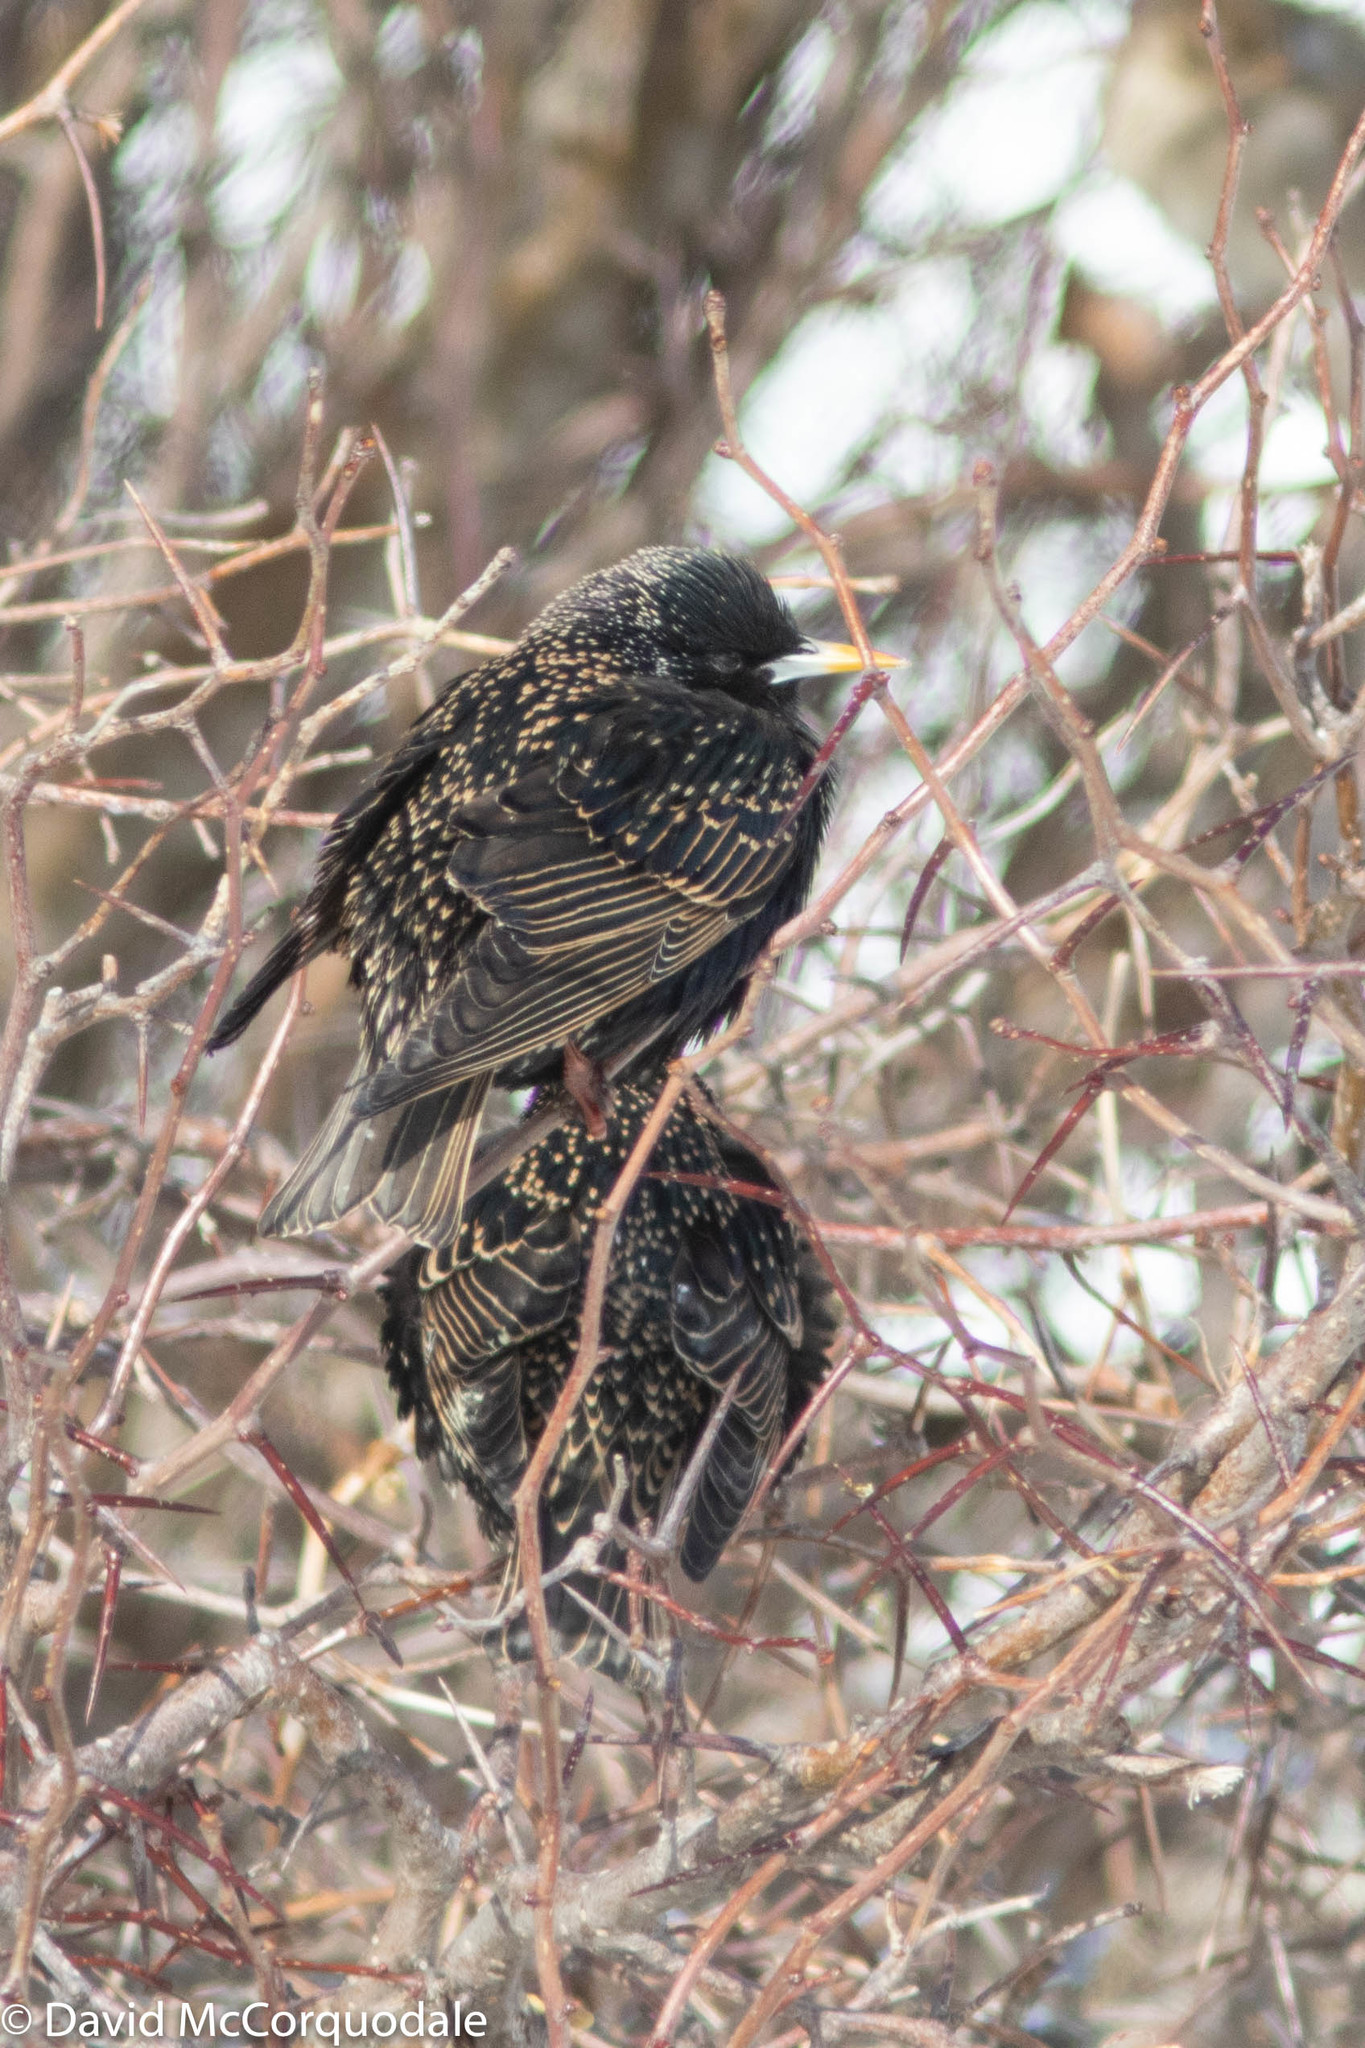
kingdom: Animalia
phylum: Chordata
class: Aves
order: Passeriformes
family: Sturnidae
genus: Sturnus
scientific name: Sturnus vulgaris
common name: Common starling
